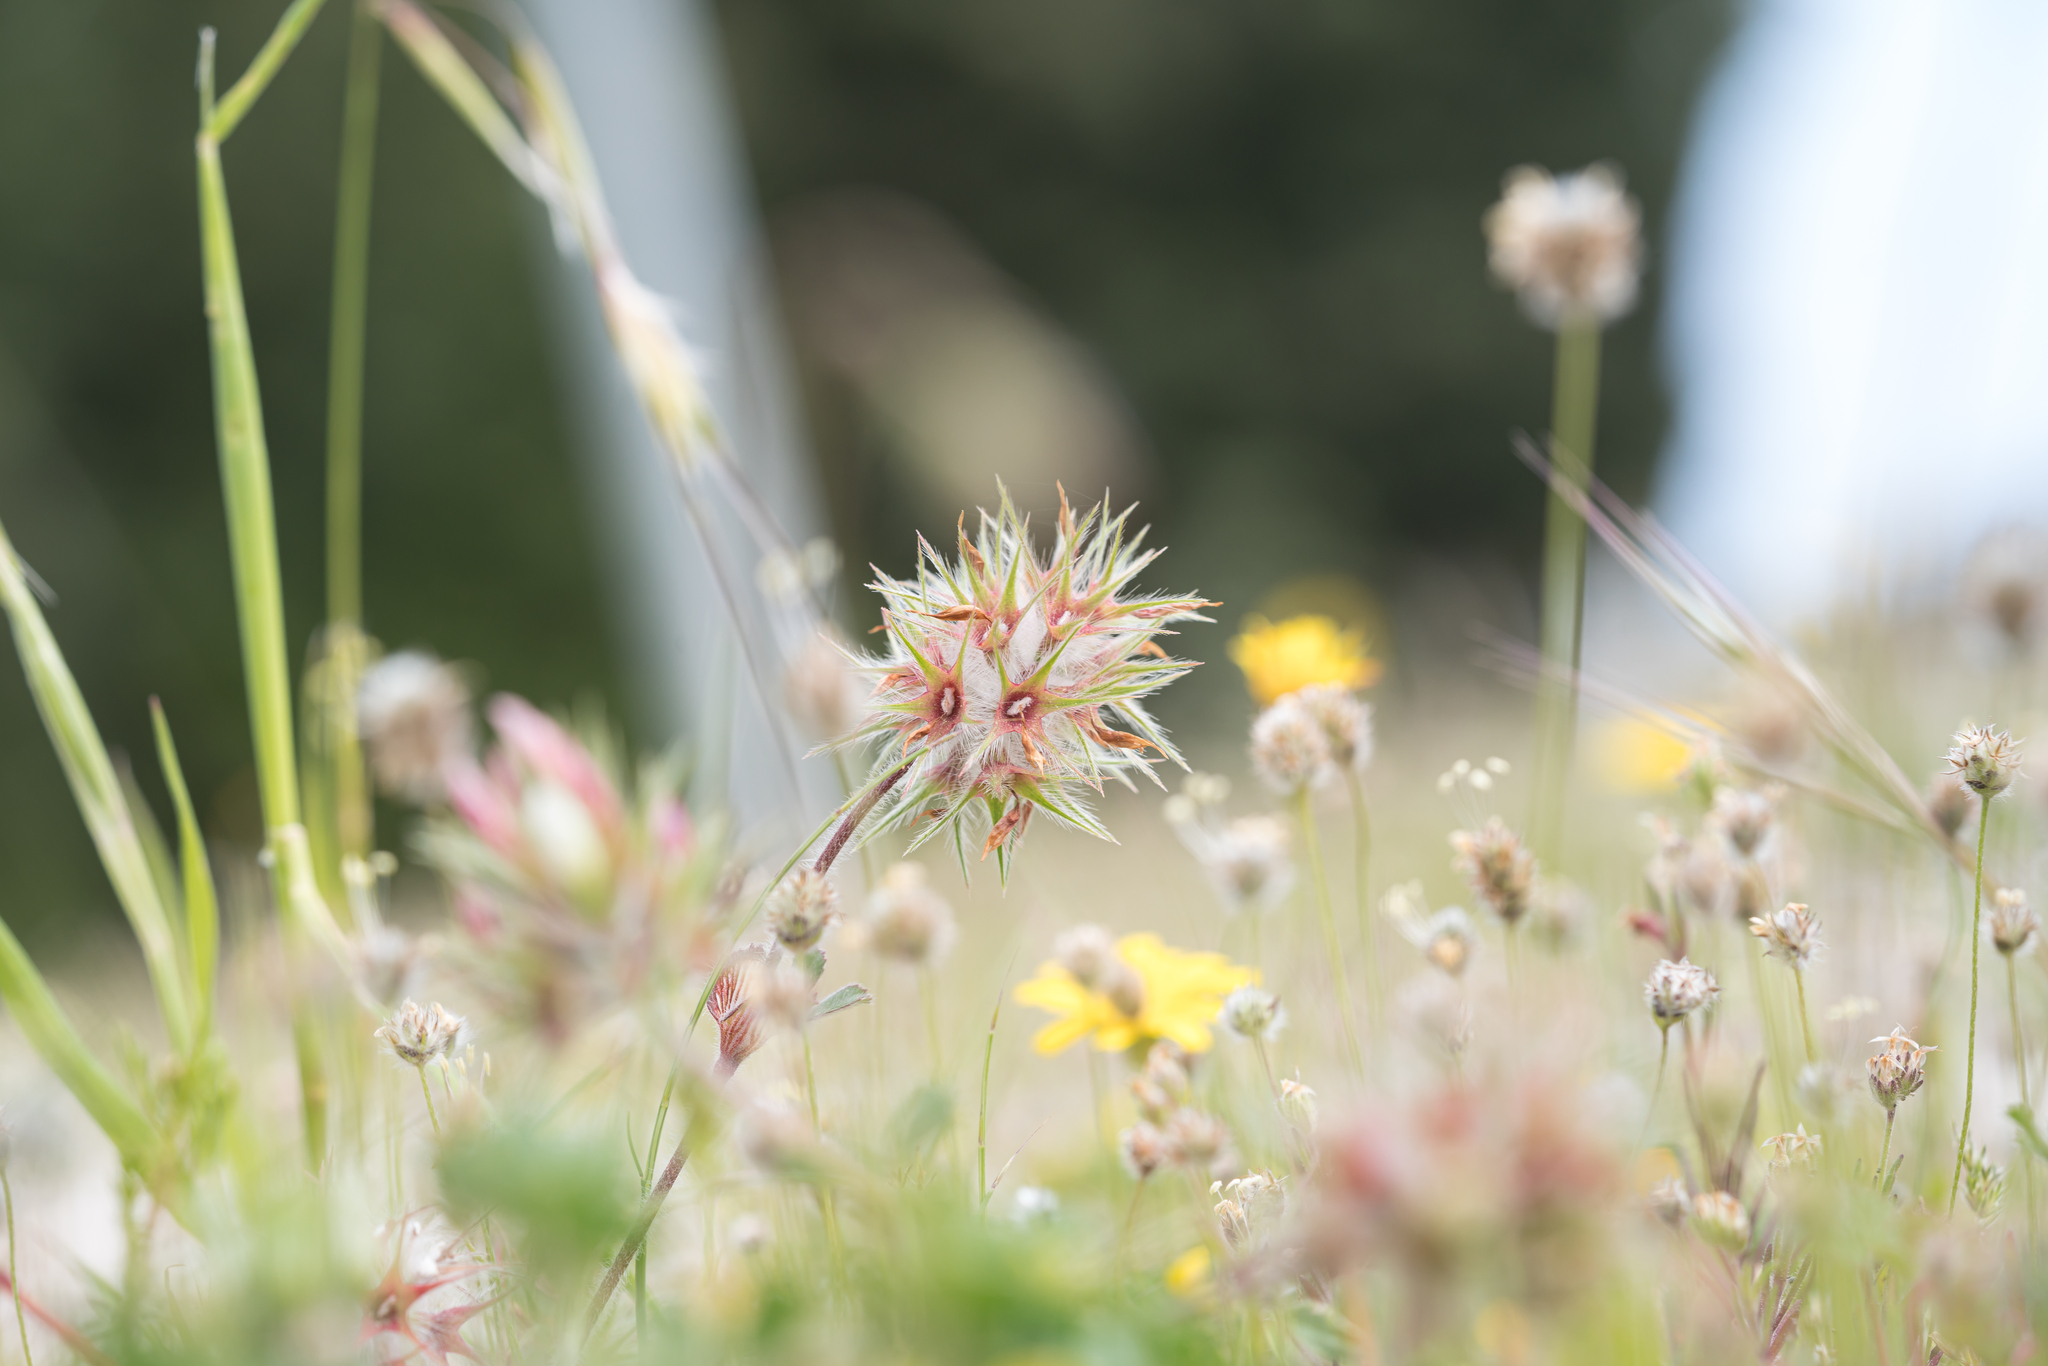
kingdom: Plantae
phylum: Tracheophyta
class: Magnoliopsida
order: Fabales
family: Fabaceae
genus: Trifolium
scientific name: Trifolium stellatum
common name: Starry clover
